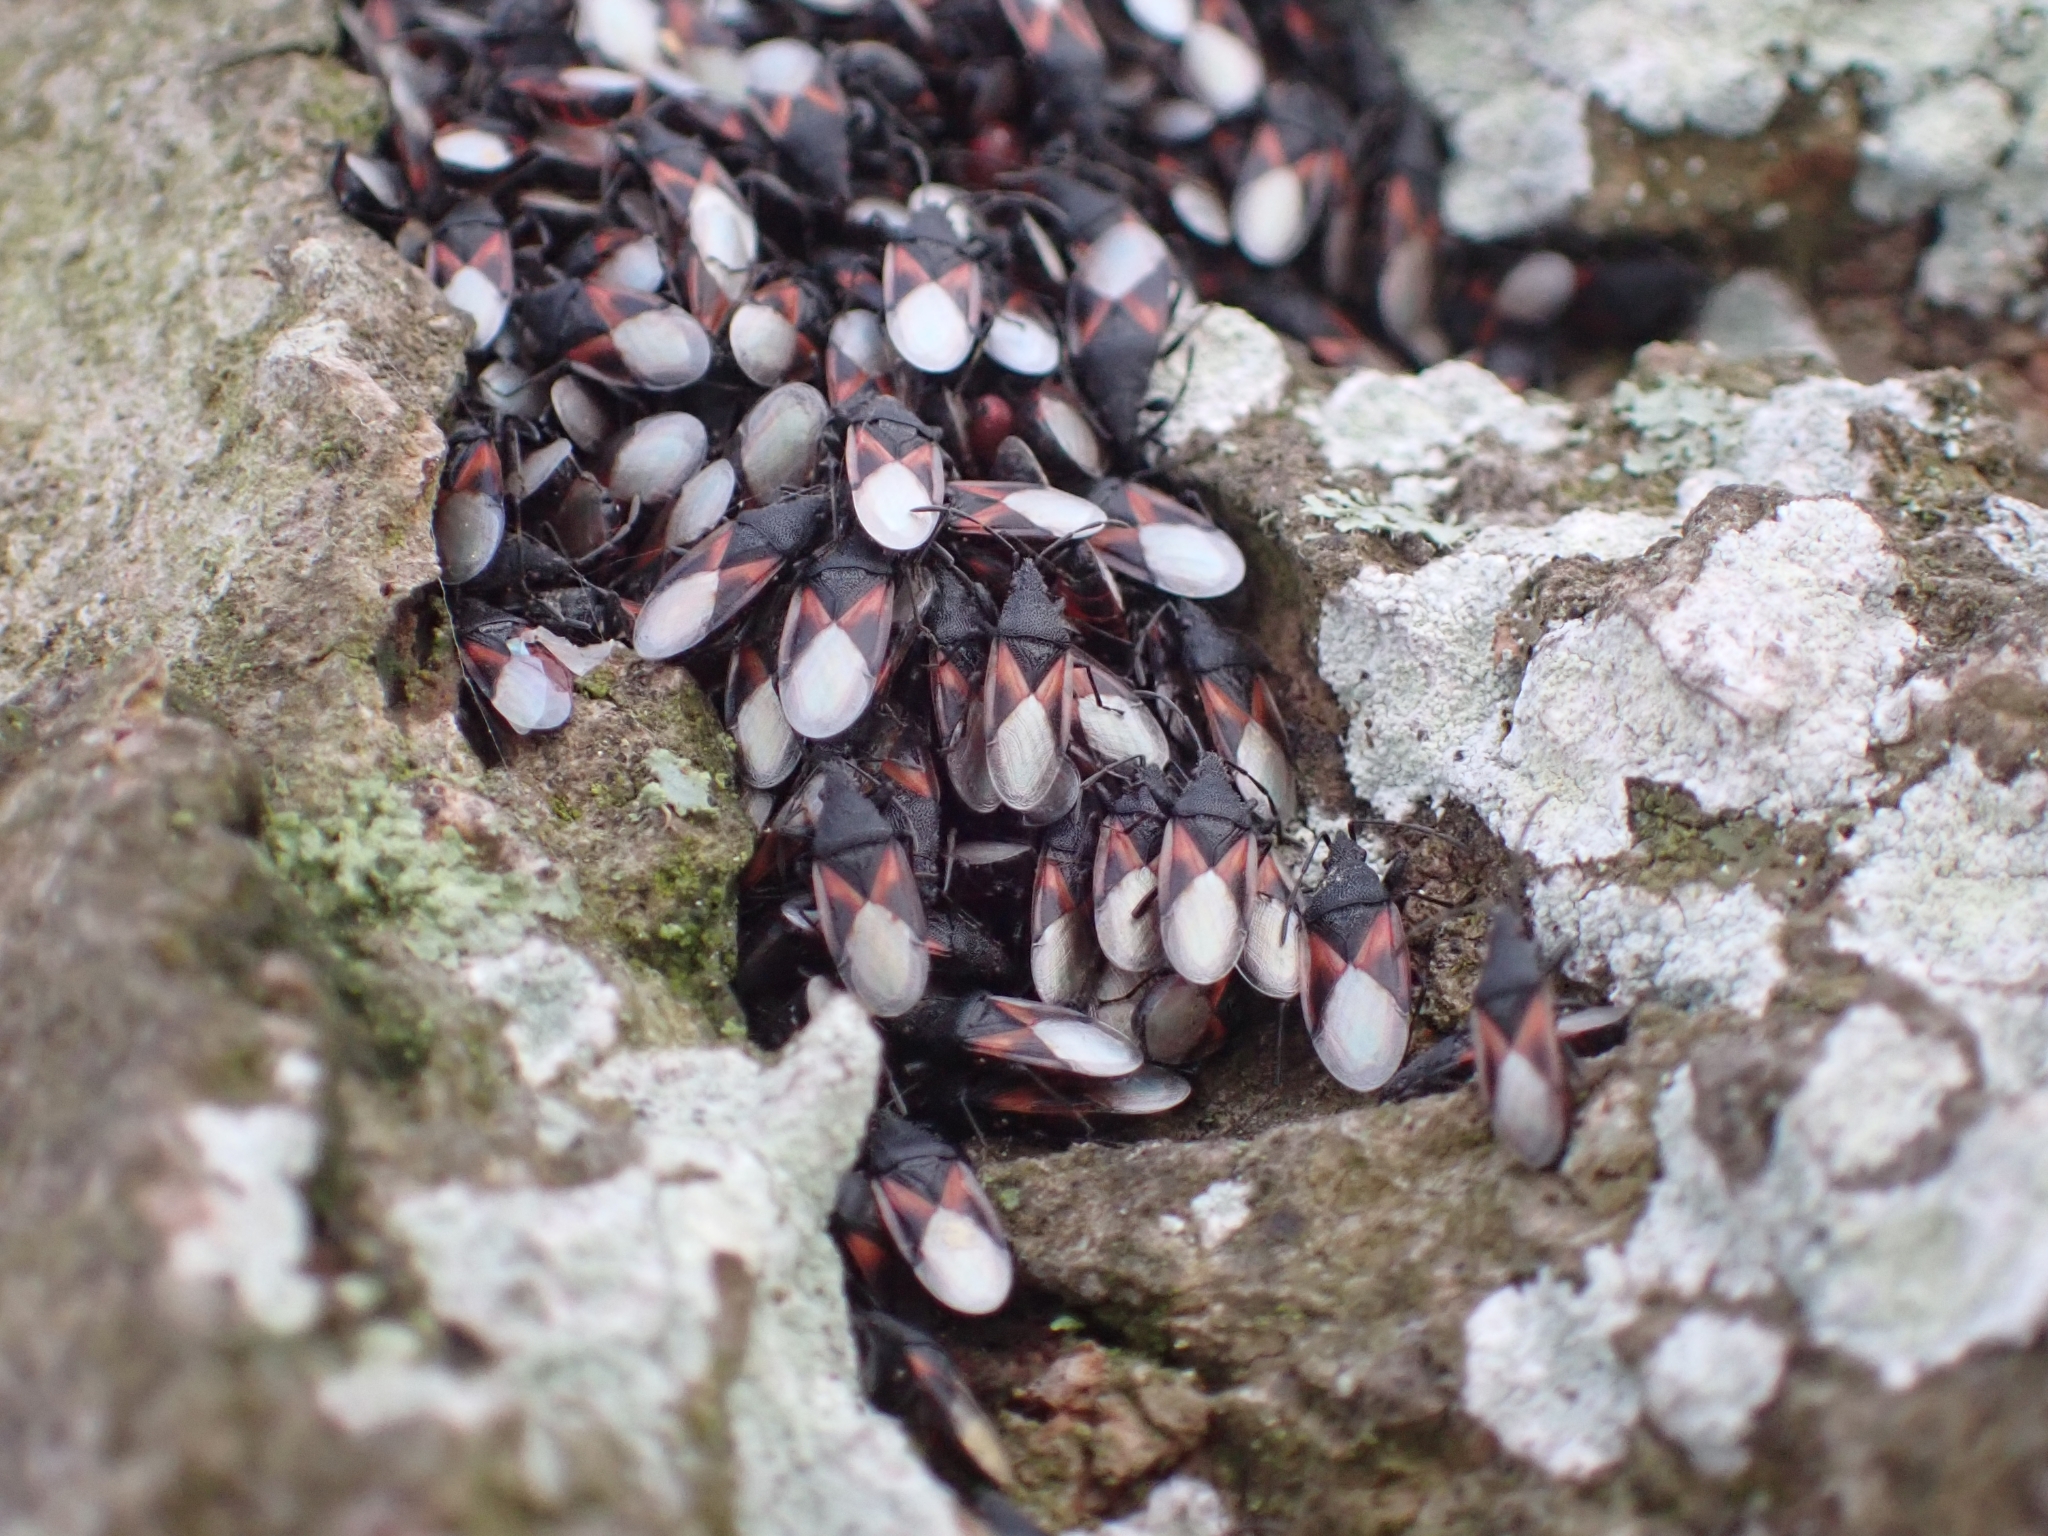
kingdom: Animalia
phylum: Arthropoda
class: Insecta
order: Hemiptera
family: Oxycarenidae
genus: Oxycarenus
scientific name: Oxycarenus lavaterae
